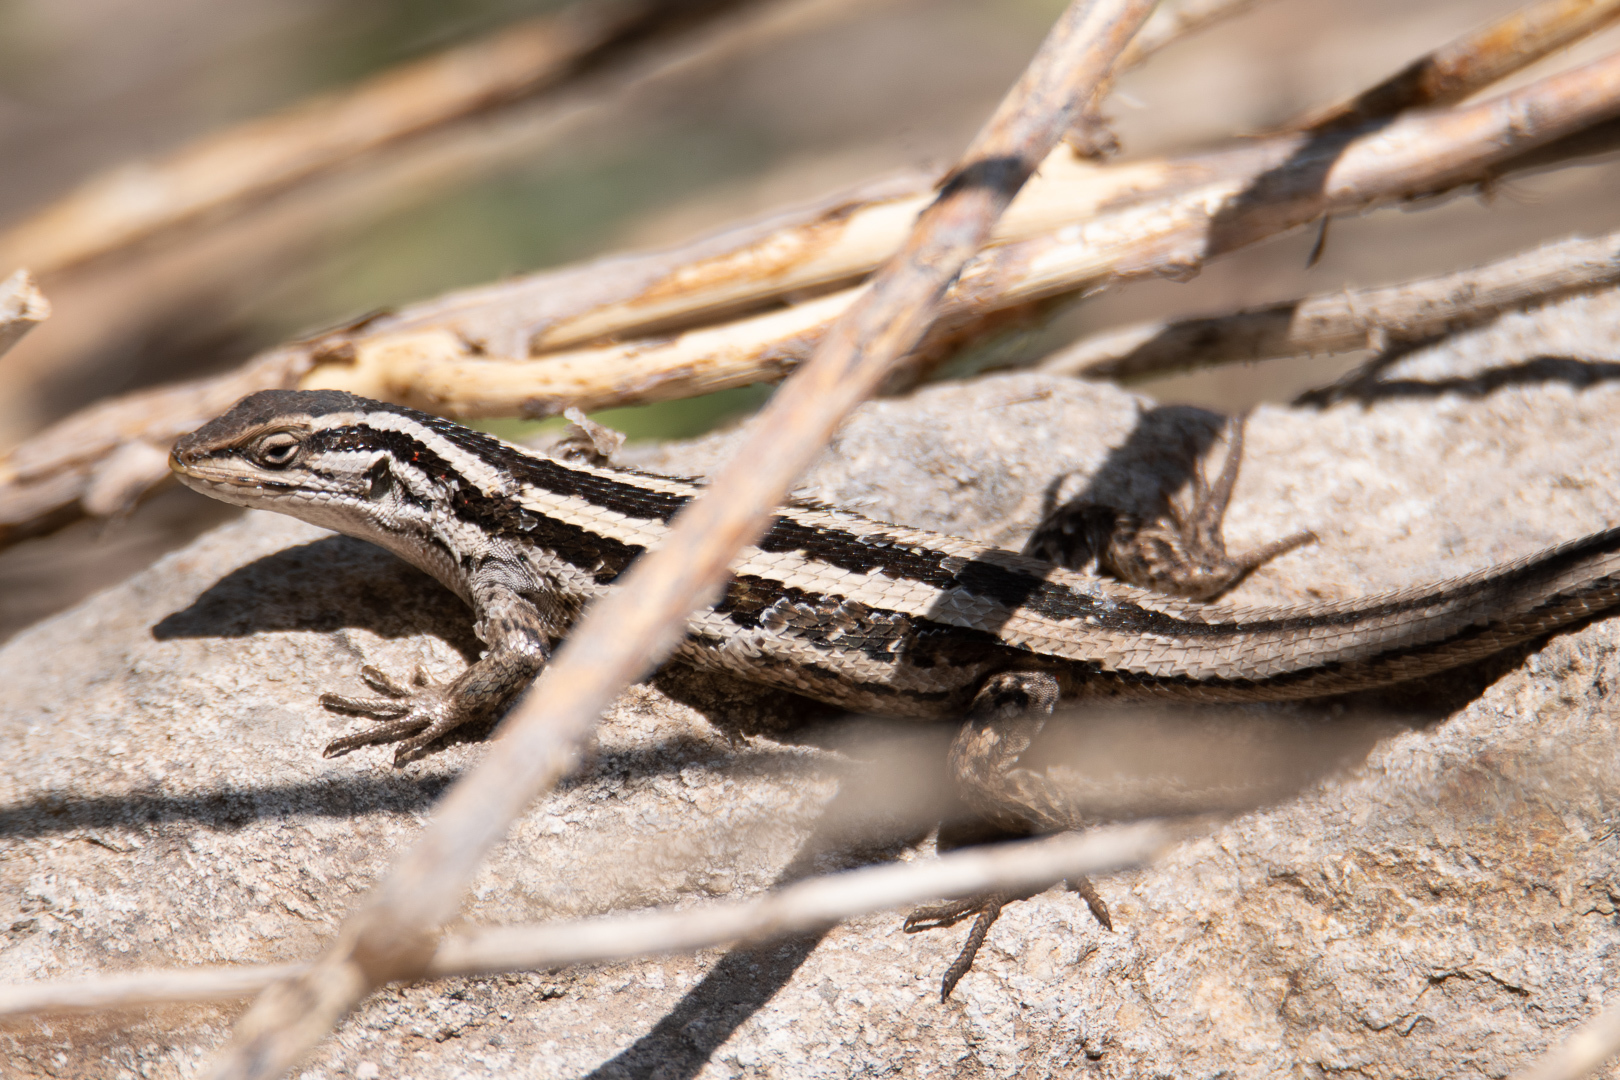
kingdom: Animalia
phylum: Chordata
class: Squamata
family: Liolaemidae
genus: Liolaemus
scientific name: Liolaemus schroederi
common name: Schroeder's tree iguana
